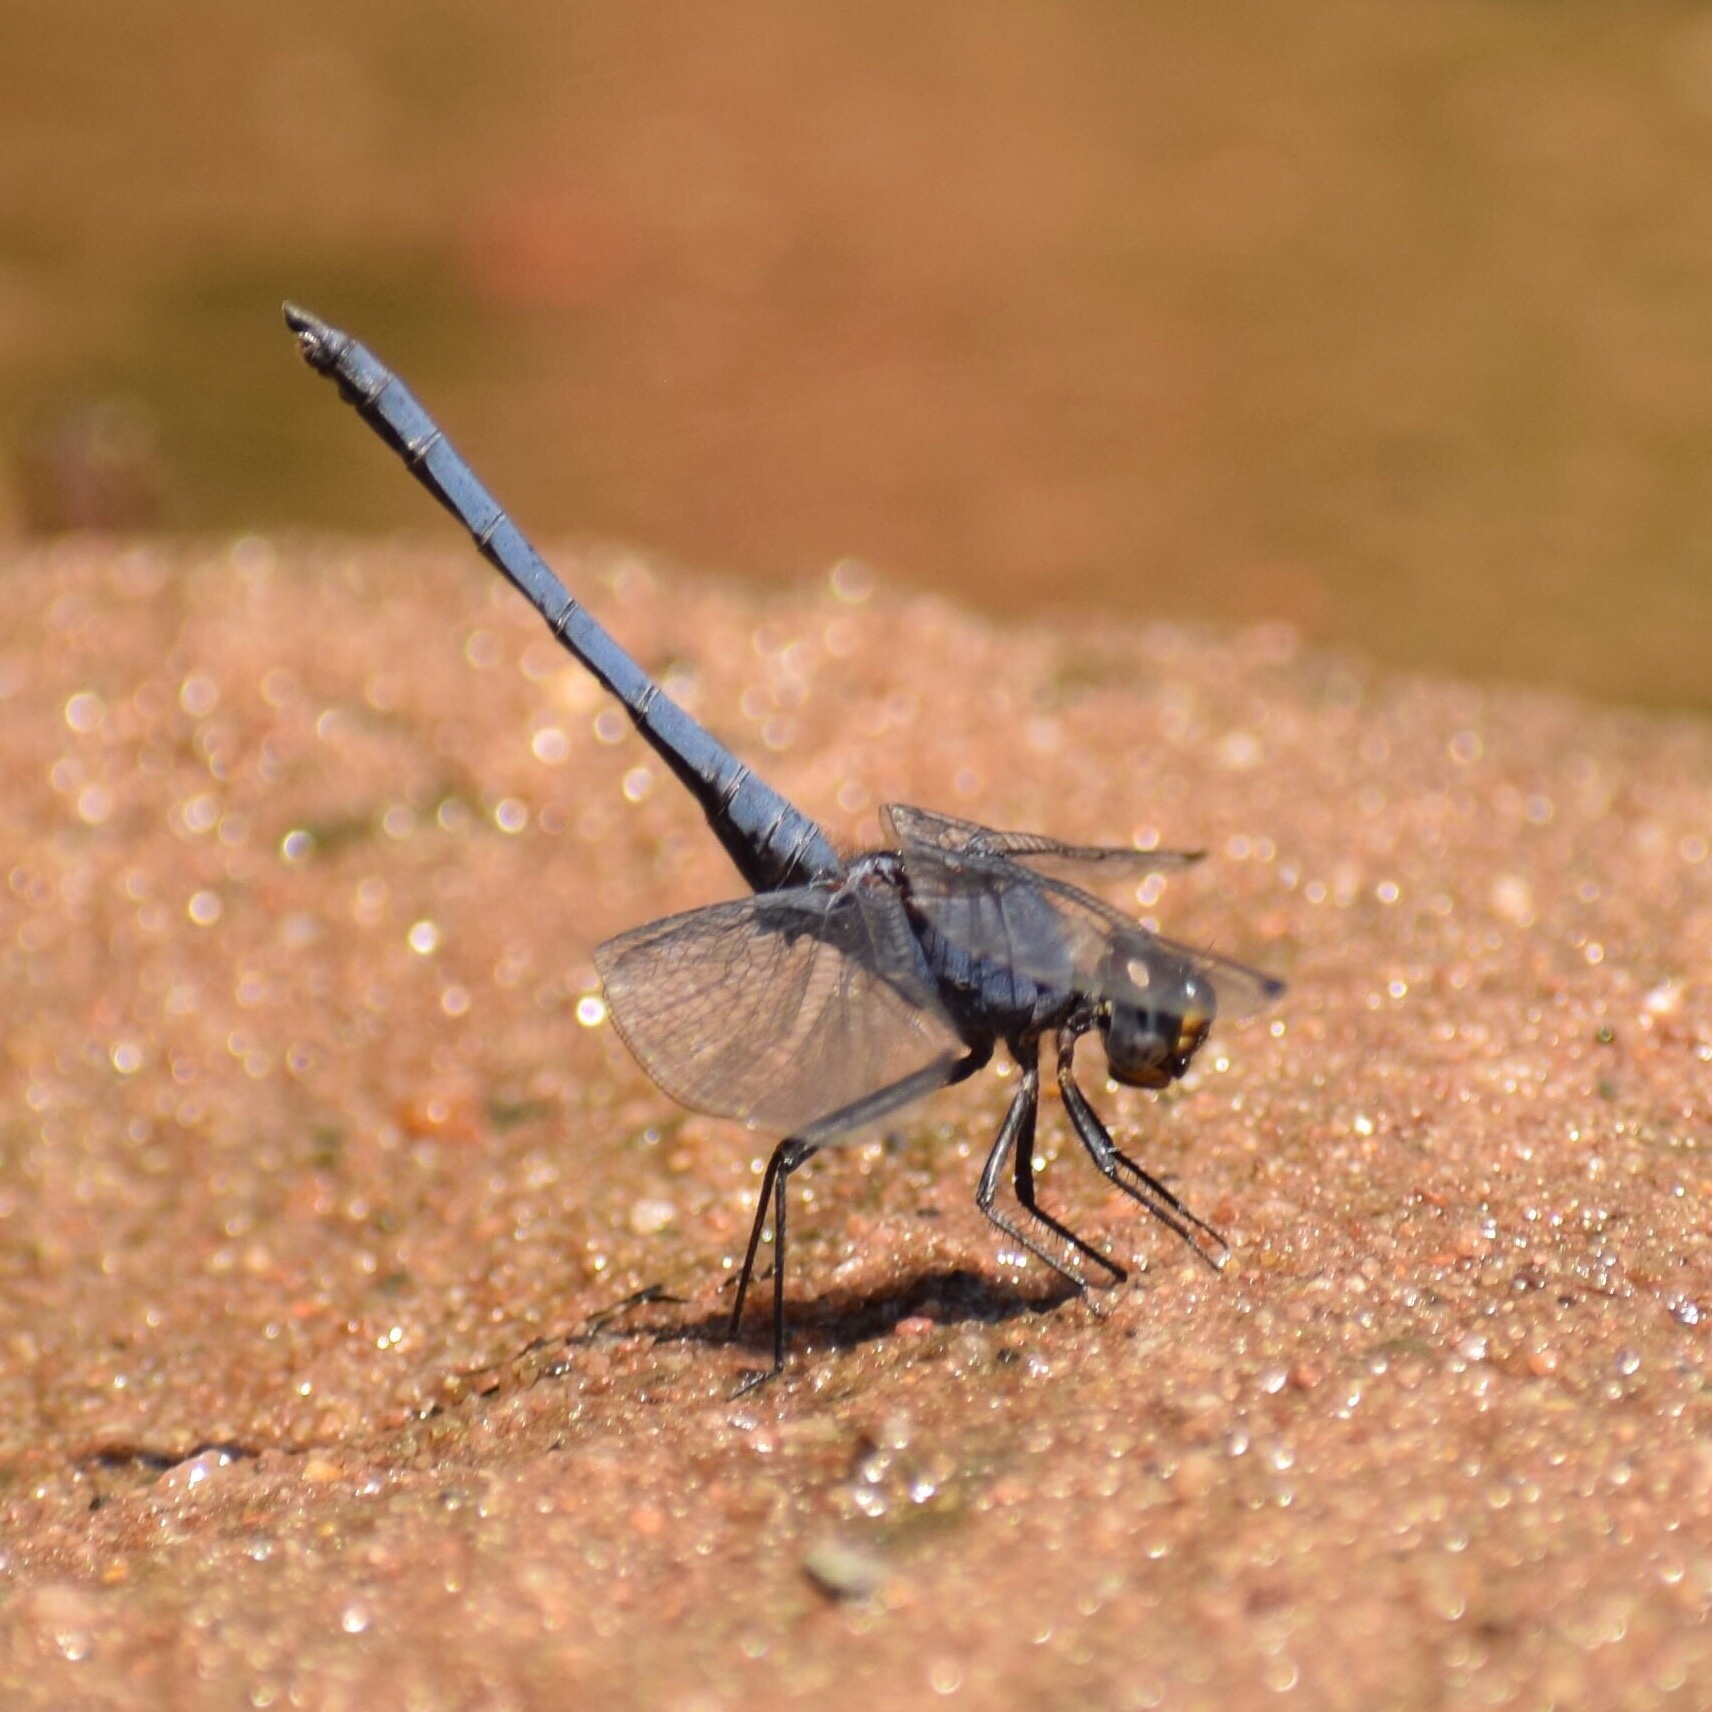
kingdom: Animalia
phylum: Arthropoda
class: Insecta
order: Odonata
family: Libellulidae
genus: Trithemis
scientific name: Trithemis furva
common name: Dark dropwing
